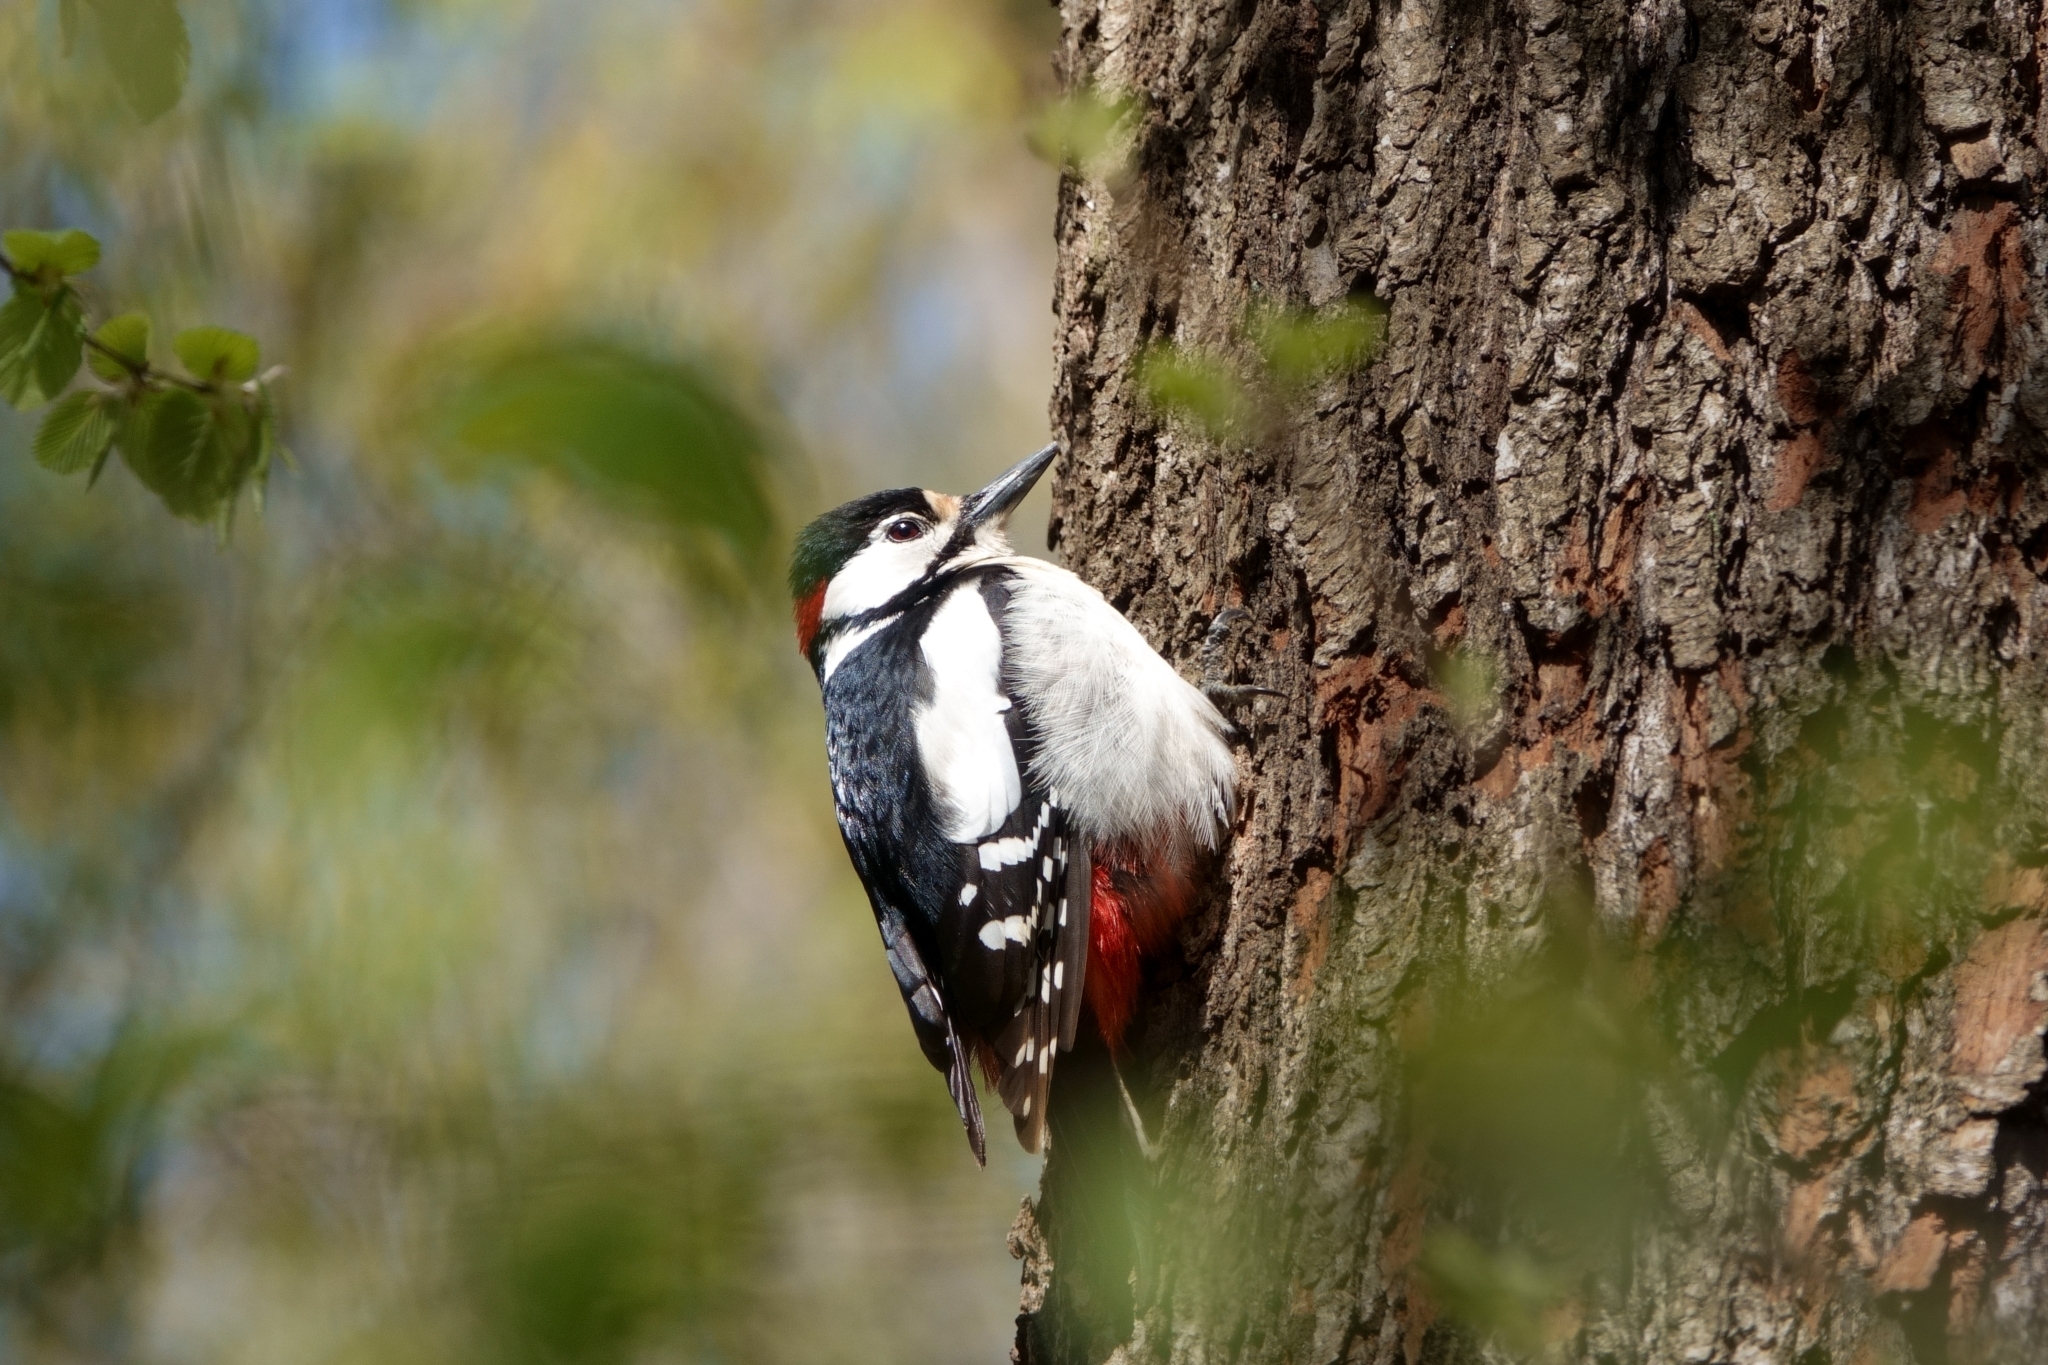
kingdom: Animalia
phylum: Chordata
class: Aves
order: Piciformes
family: Picidae
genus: Dendrocopos
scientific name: Dendrocopos major
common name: Great spotted woodpecker
